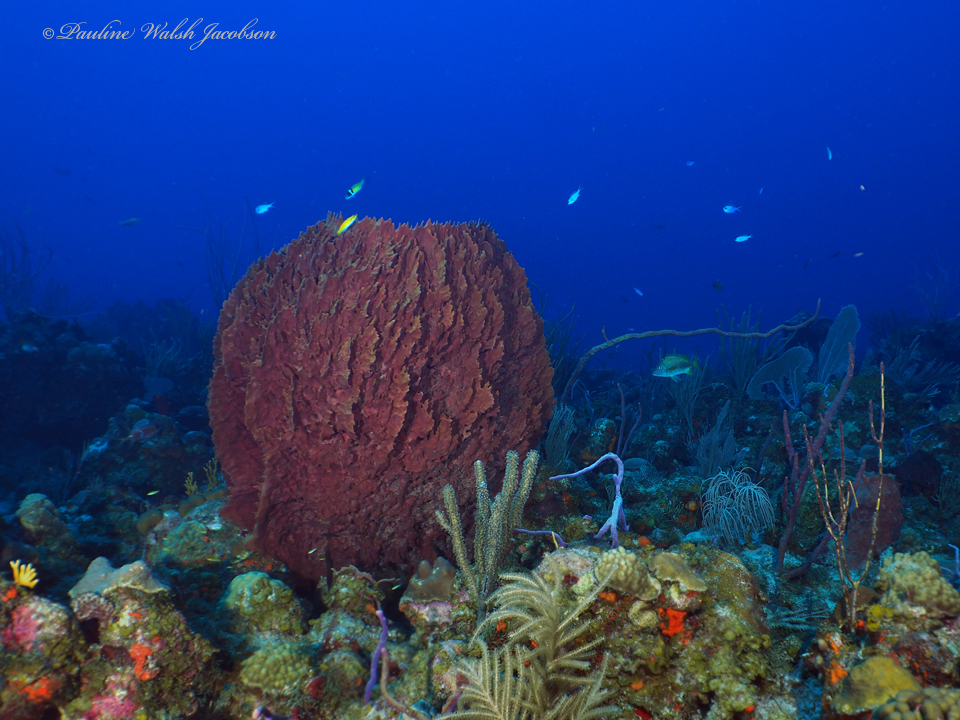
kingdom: Animalia
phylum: Porifera
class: Demospongiae
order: Haplosclerida
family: Petrosiidae
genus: Xestospongia
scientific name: Xestospongia muta
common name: Giant barrel sponge
